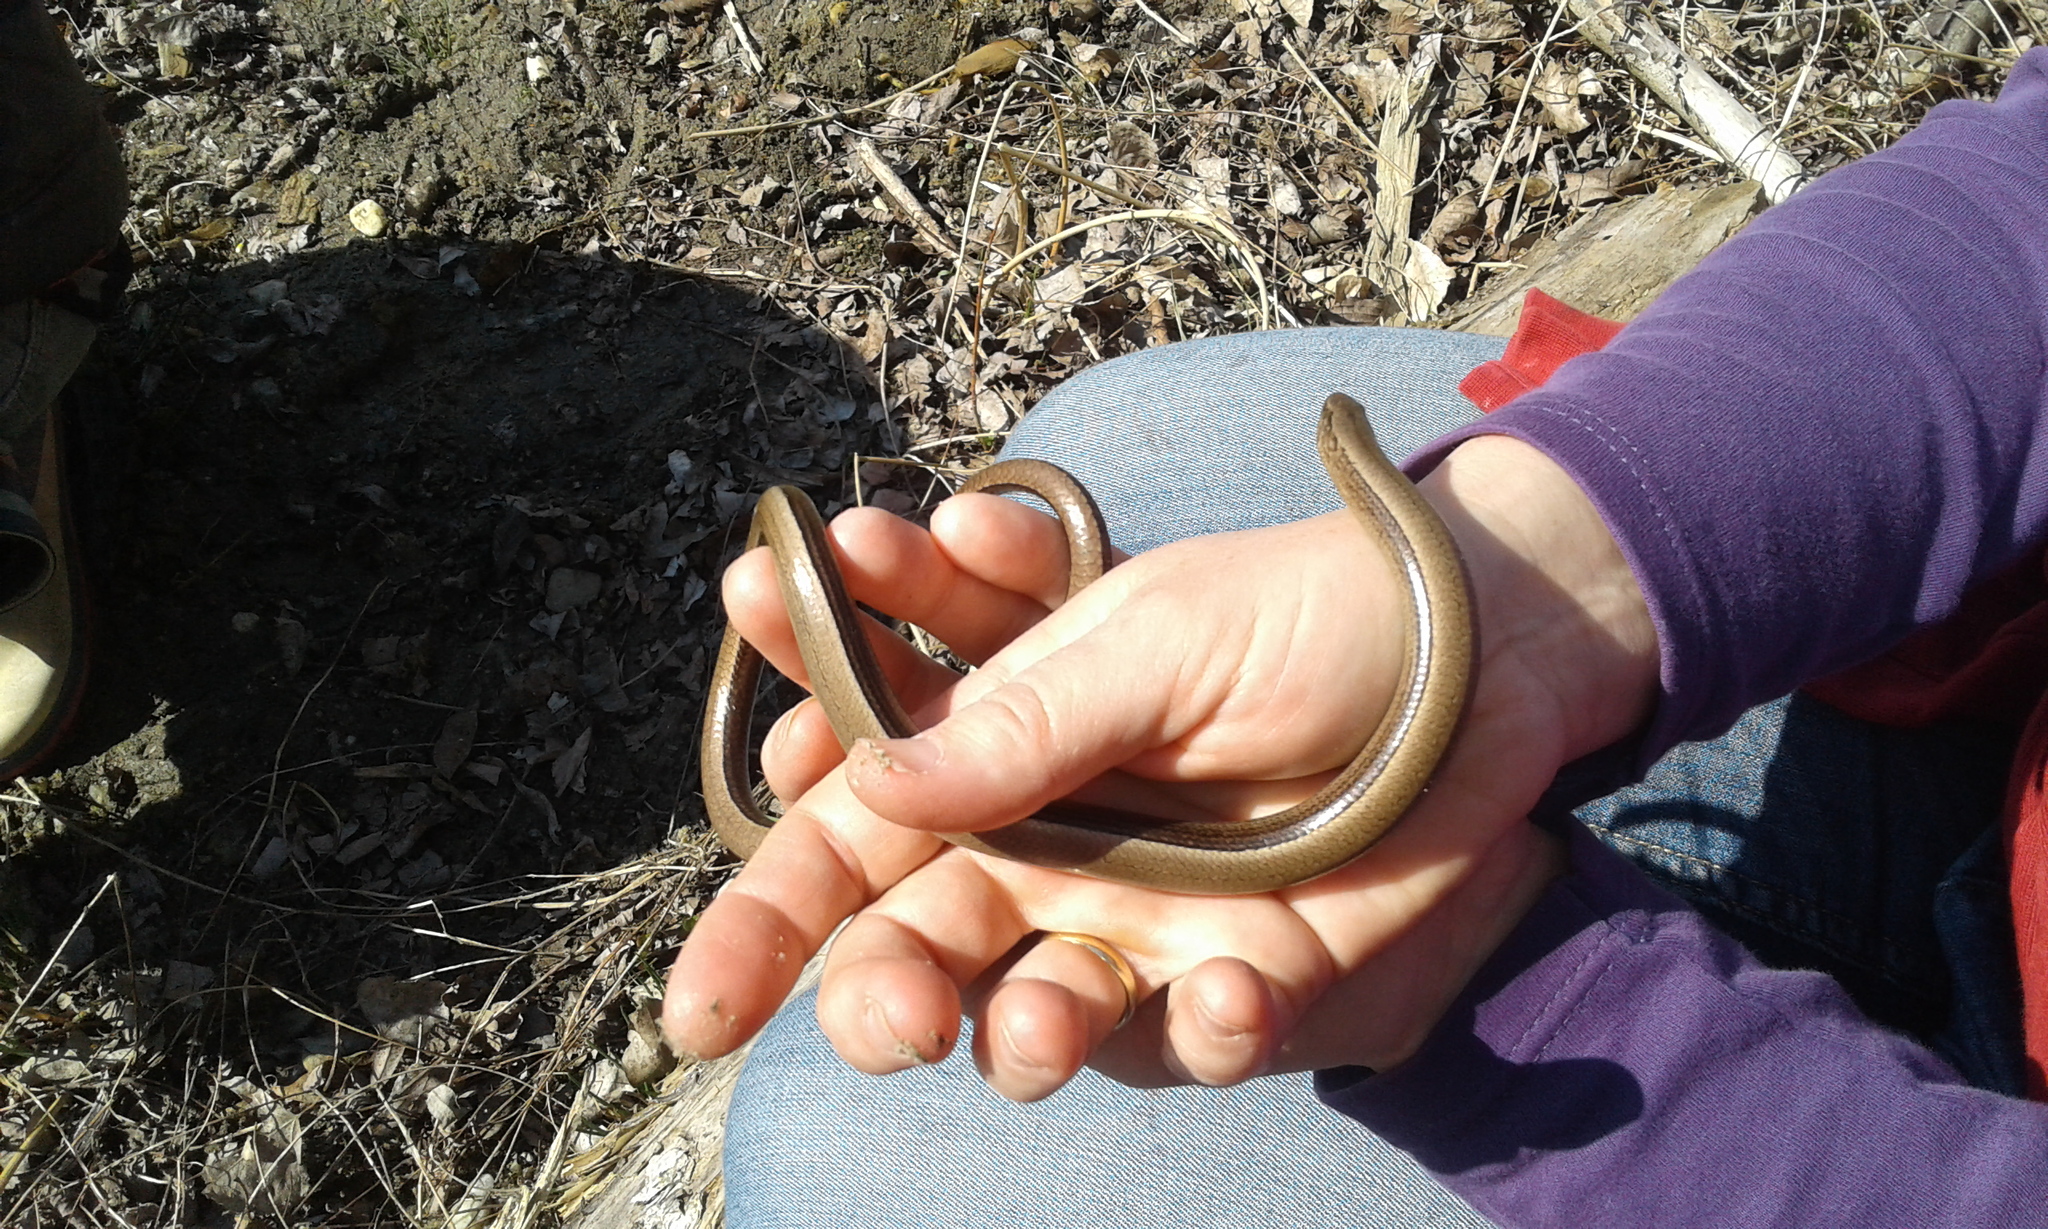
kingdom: Animalia
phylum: Chordata
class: Squamata
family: Anguidae
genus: Anguis
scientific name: Anguis fragilis
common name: Slow worm
